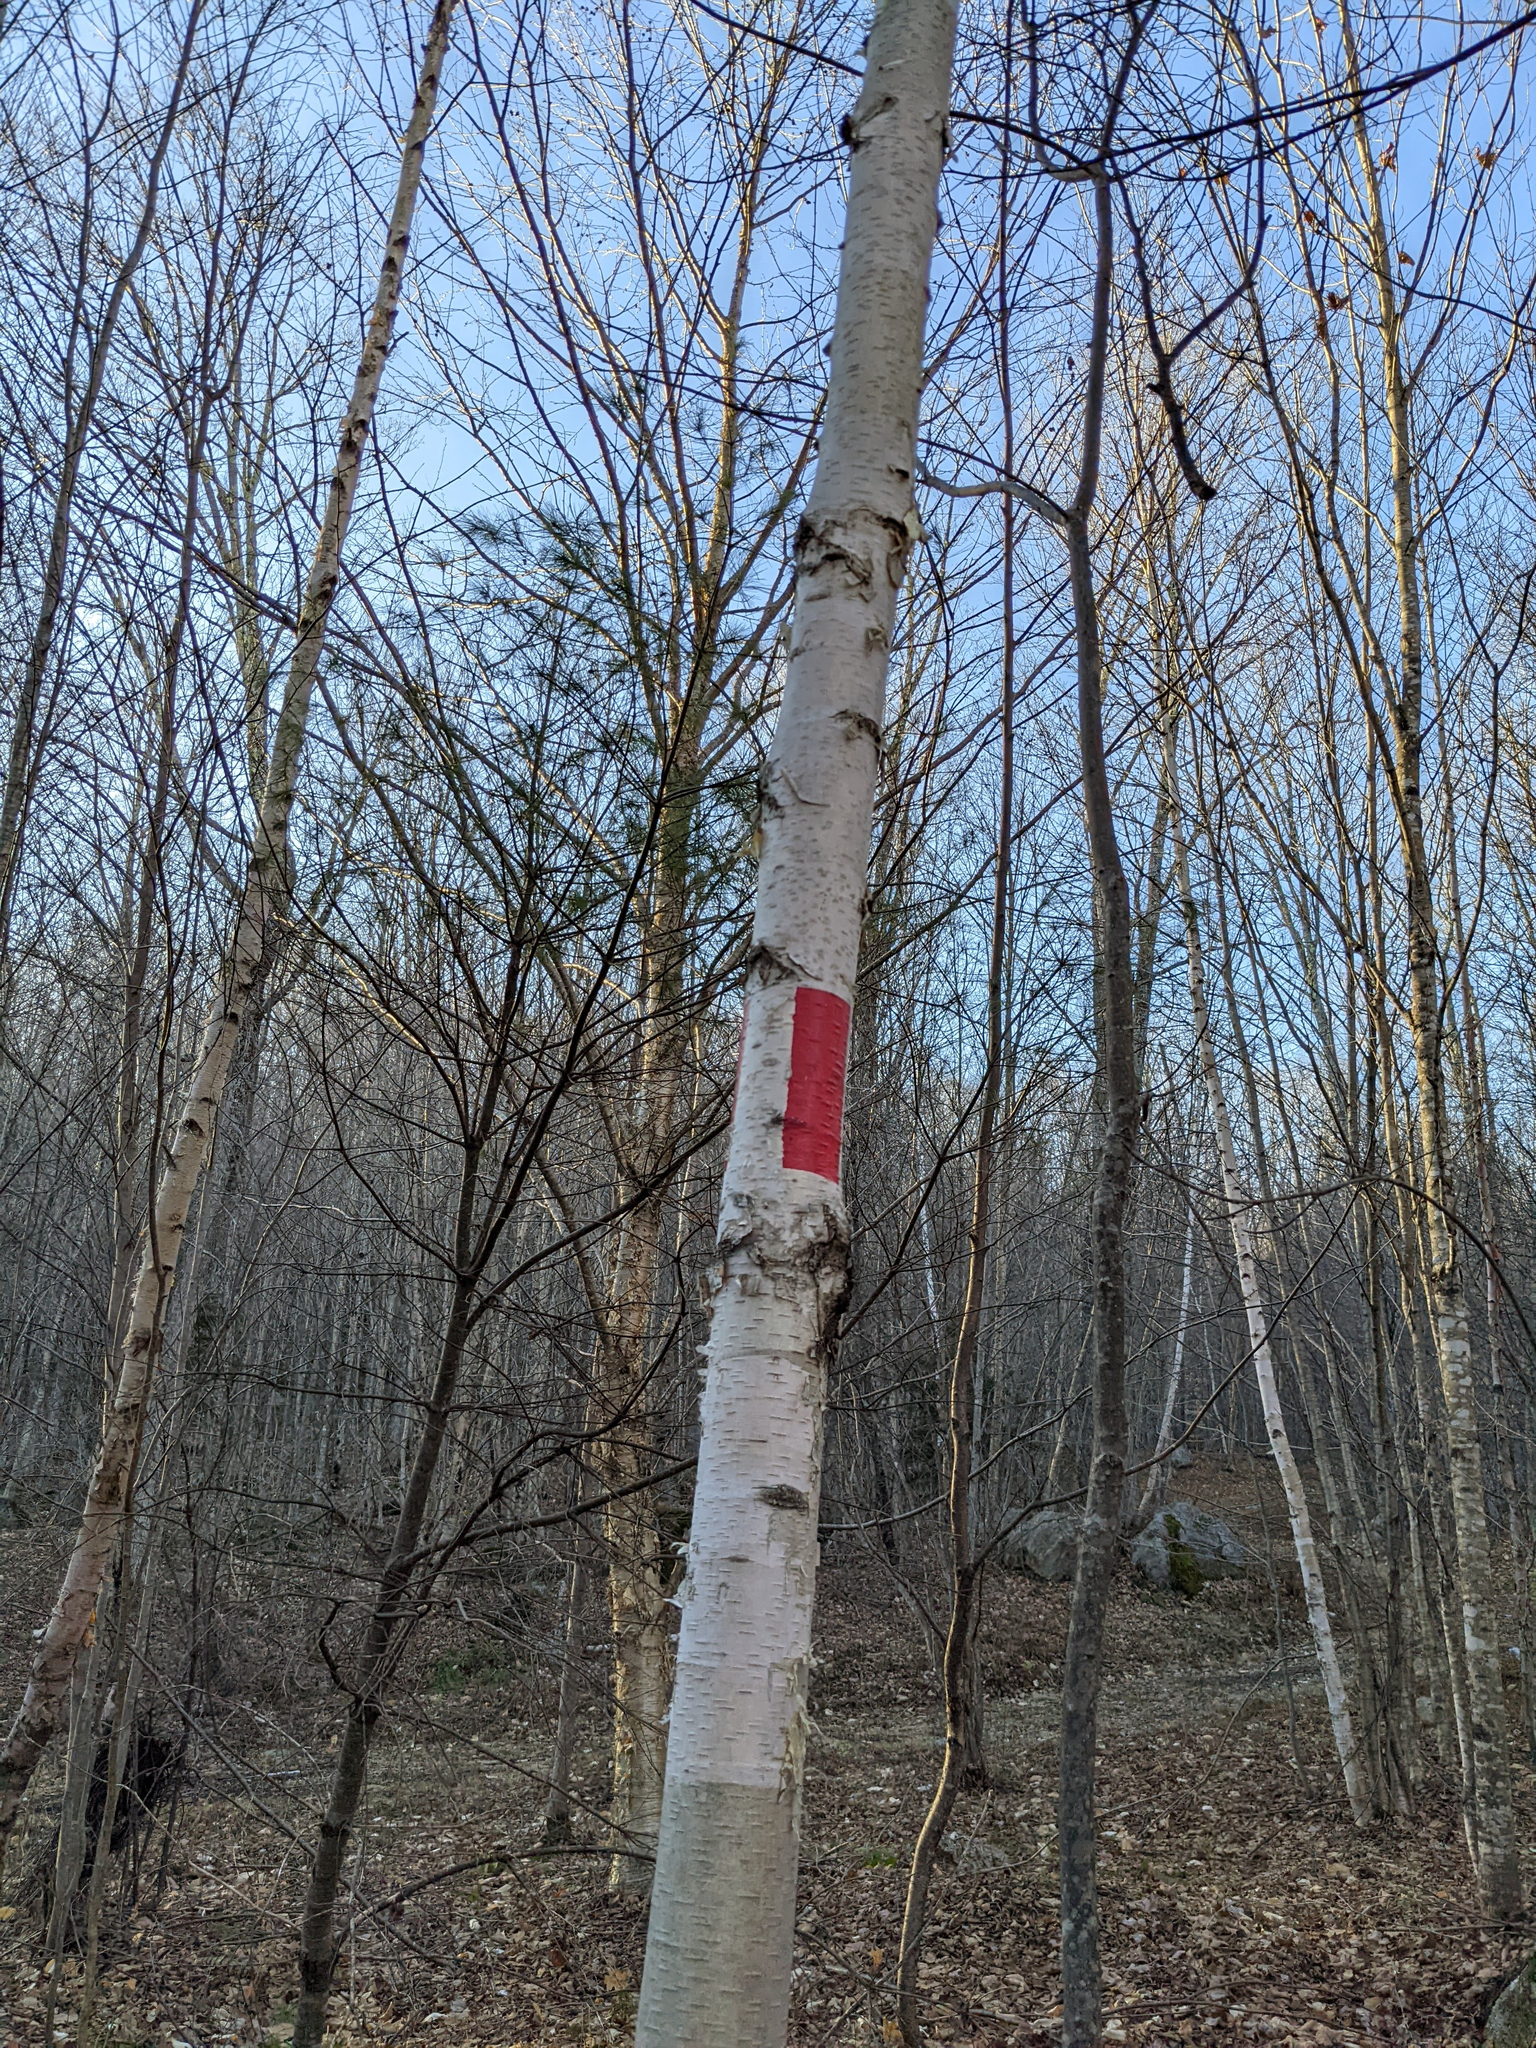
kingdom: Plantae
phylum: Tracheophyta
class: Magnoliopsida
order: Fagales
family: Betulaceae
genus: Betula
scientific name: Betula papyrifera
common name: Paper birch
